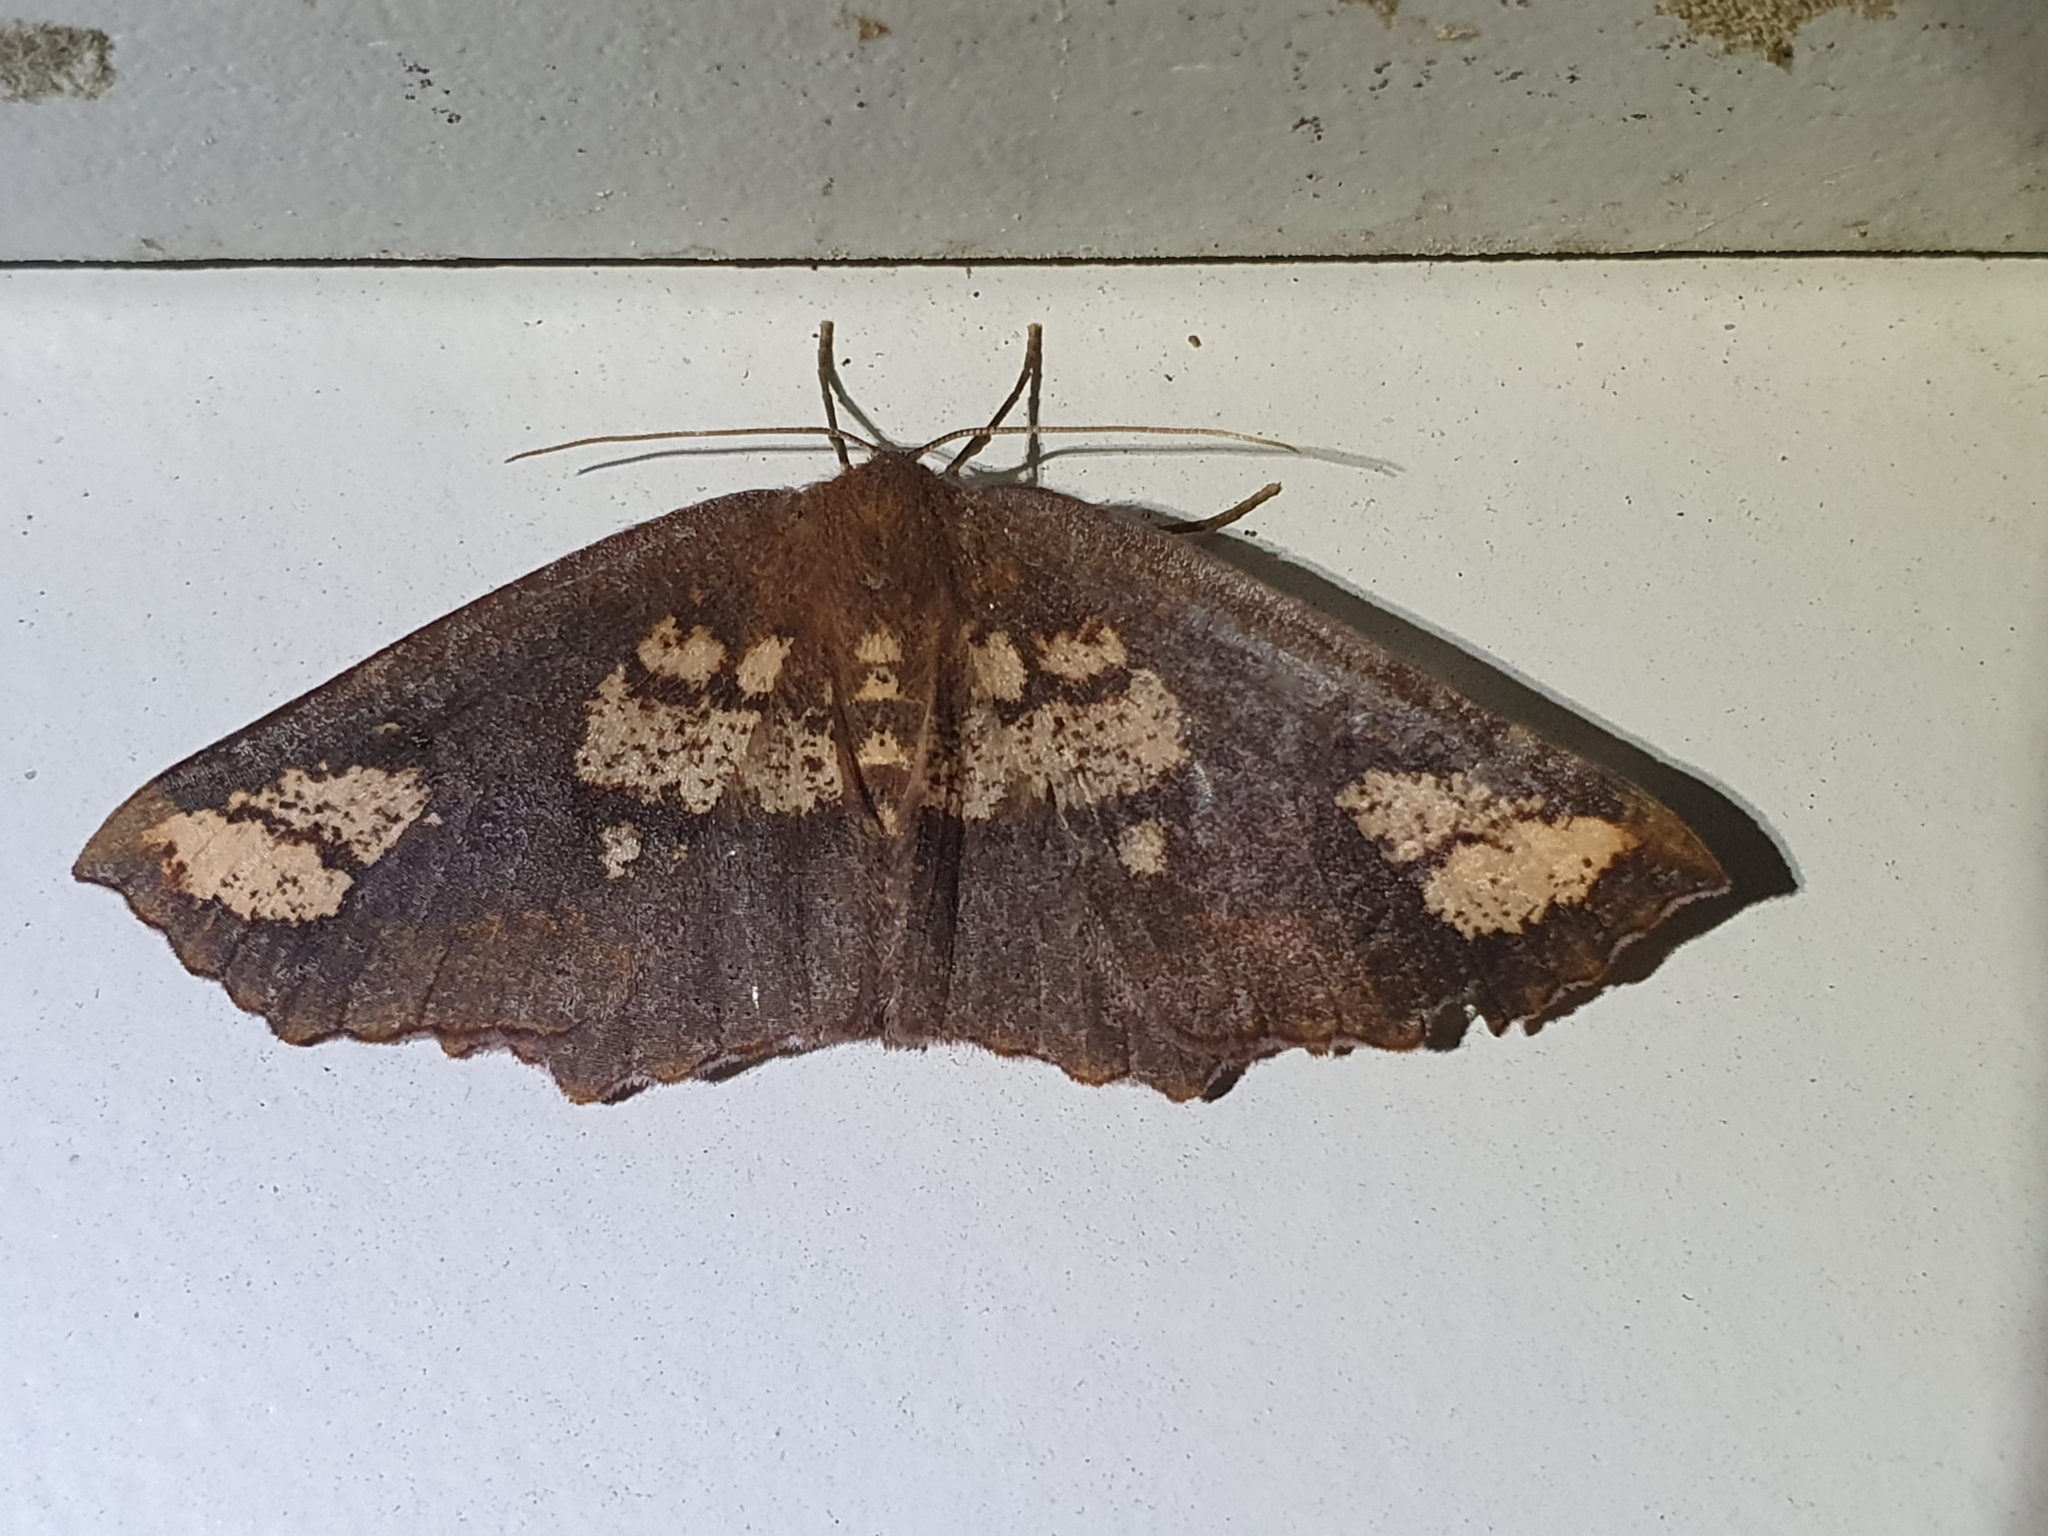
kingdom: Animalia
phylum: Arthropoda
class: Insecta
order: Lepidoptera
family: Geometridae
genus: Xyridacma
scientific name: Xyridacma ustaria
